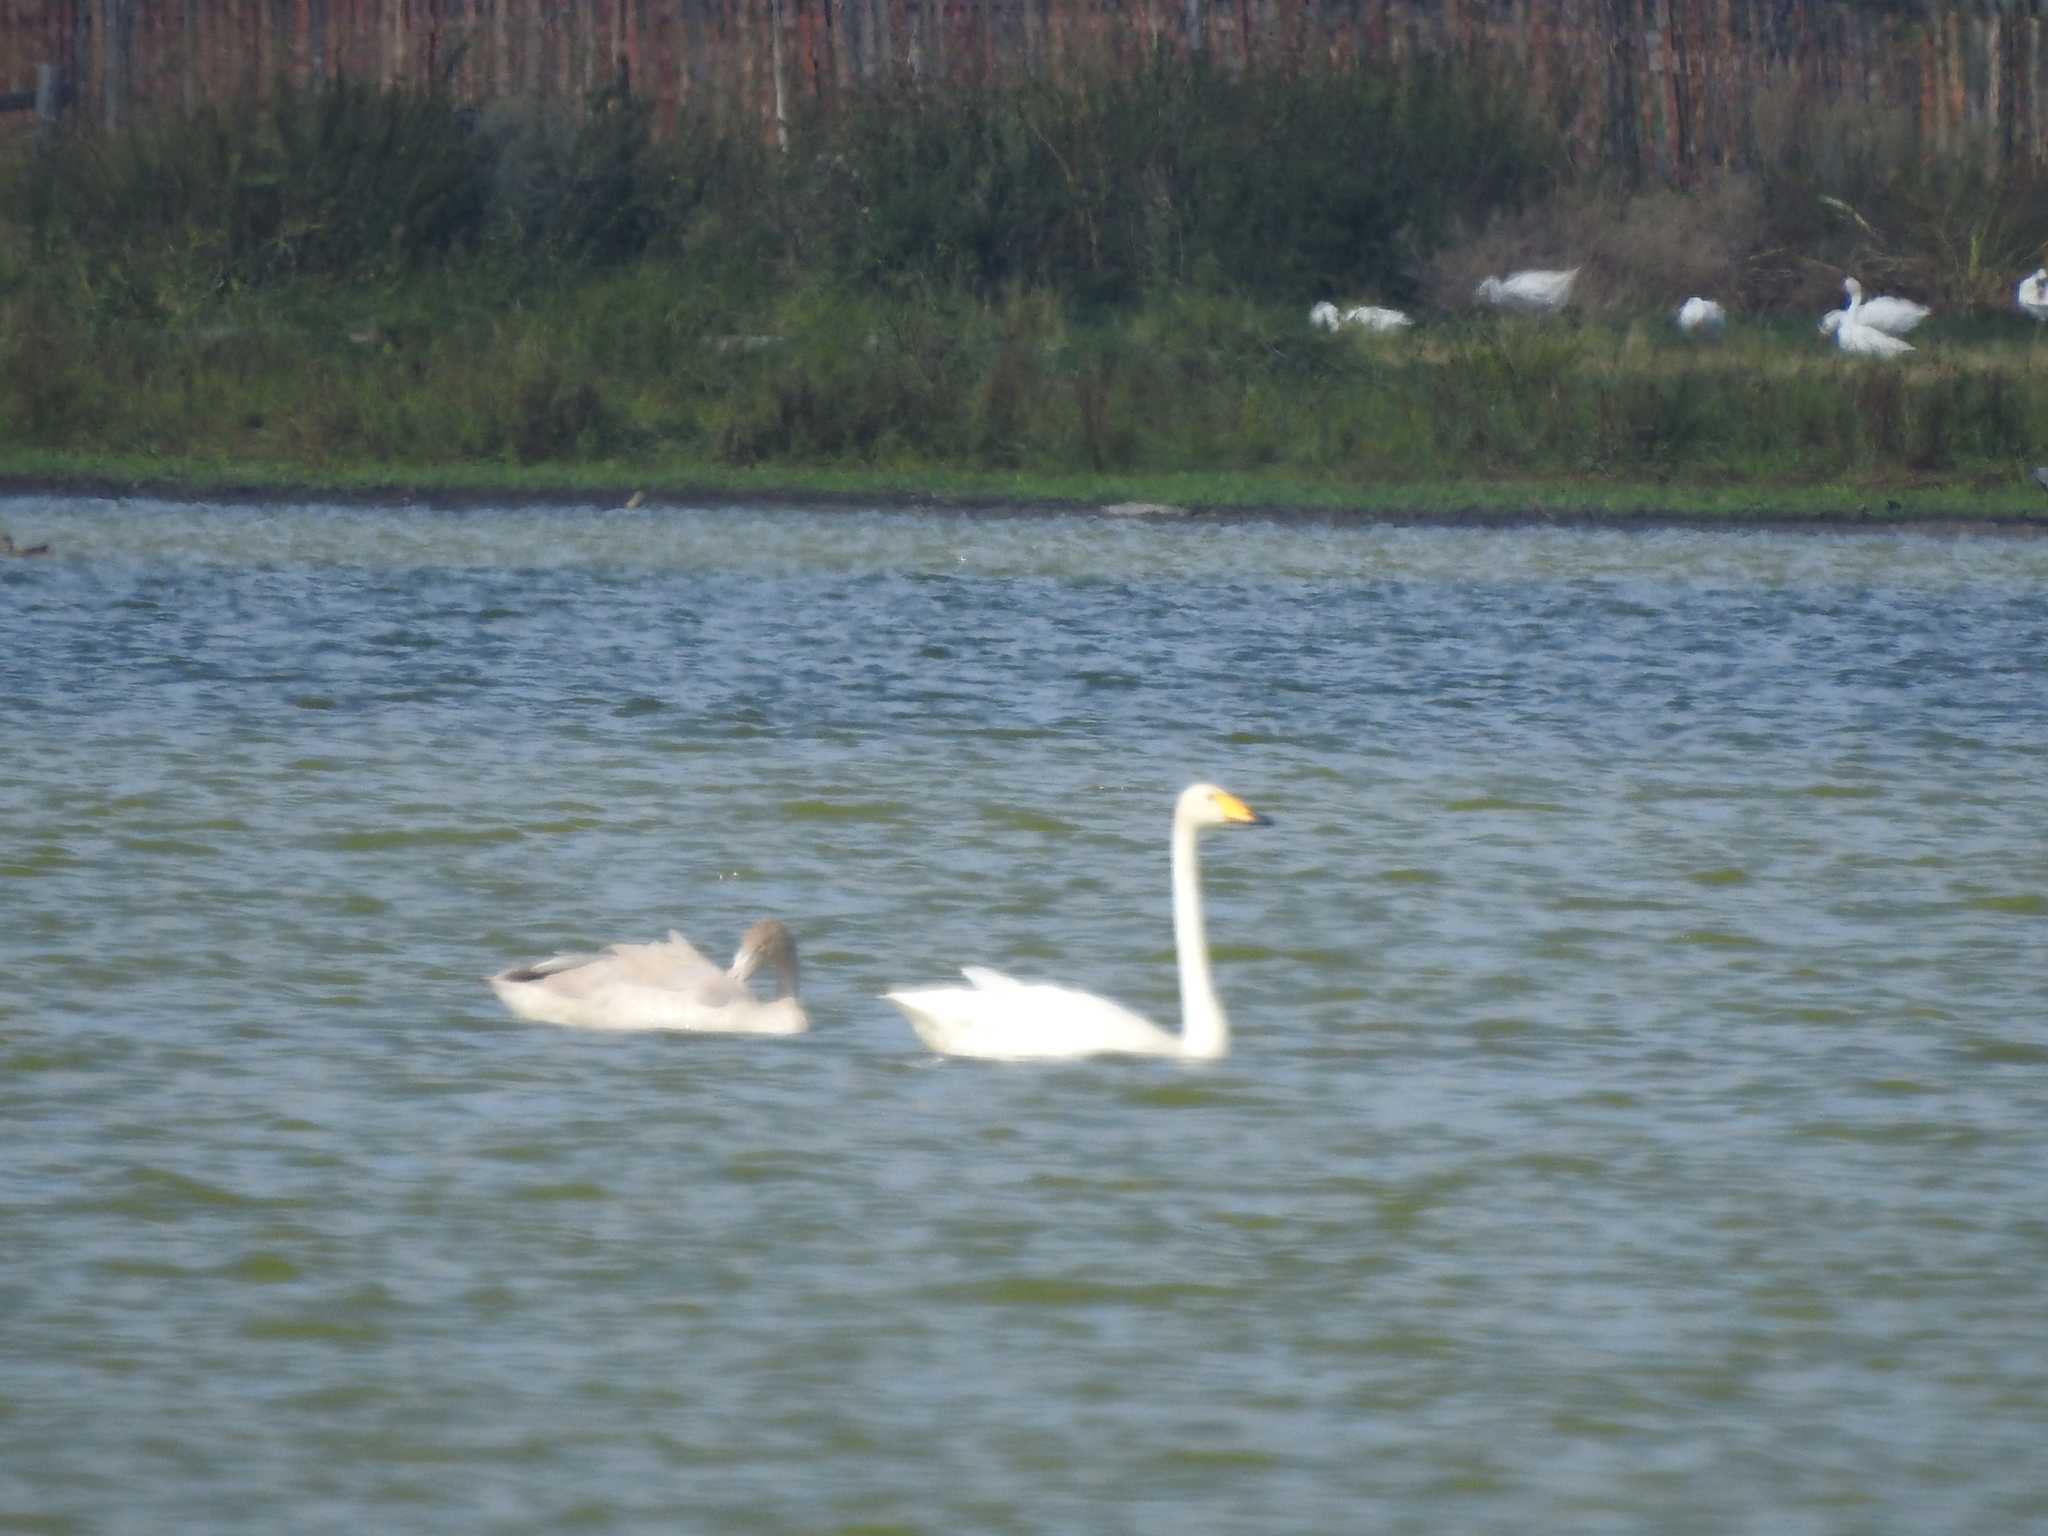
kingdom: Animalia
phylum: Chordata
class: Aves
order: Anseriformes
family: Anatidae
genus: Cygnus
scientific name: Cygnus cygnus
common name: Whooper swan
